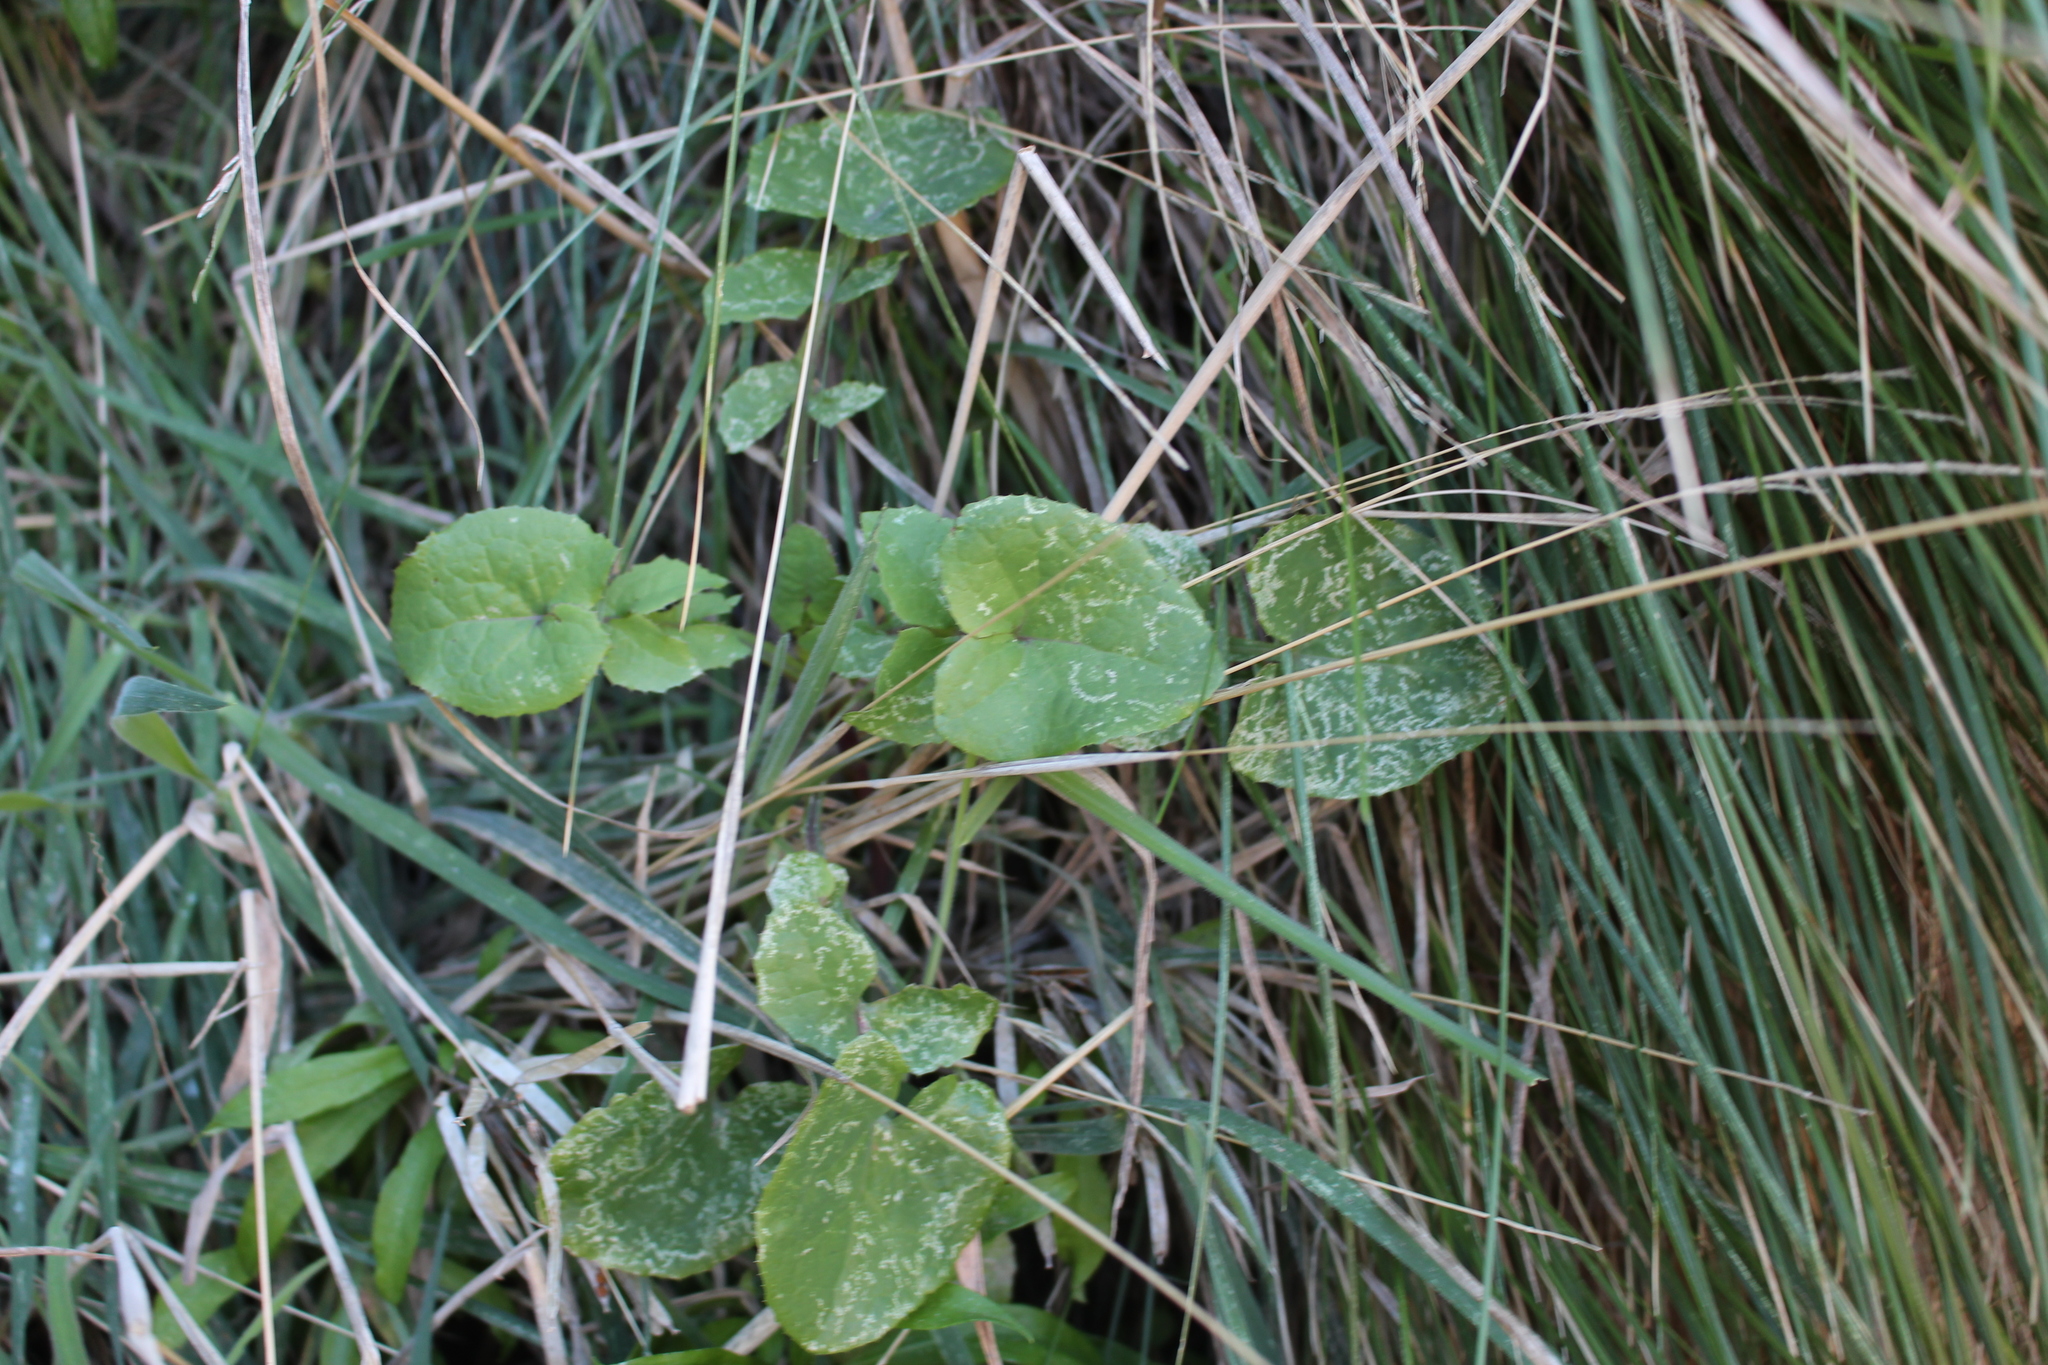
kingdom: Plantae
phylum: Tracheophyta
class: Magnoliopsida
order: Asterales
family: Asteraceae
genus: Sonchus
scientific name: Sonchus oleraceus
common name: Common sowthistle
